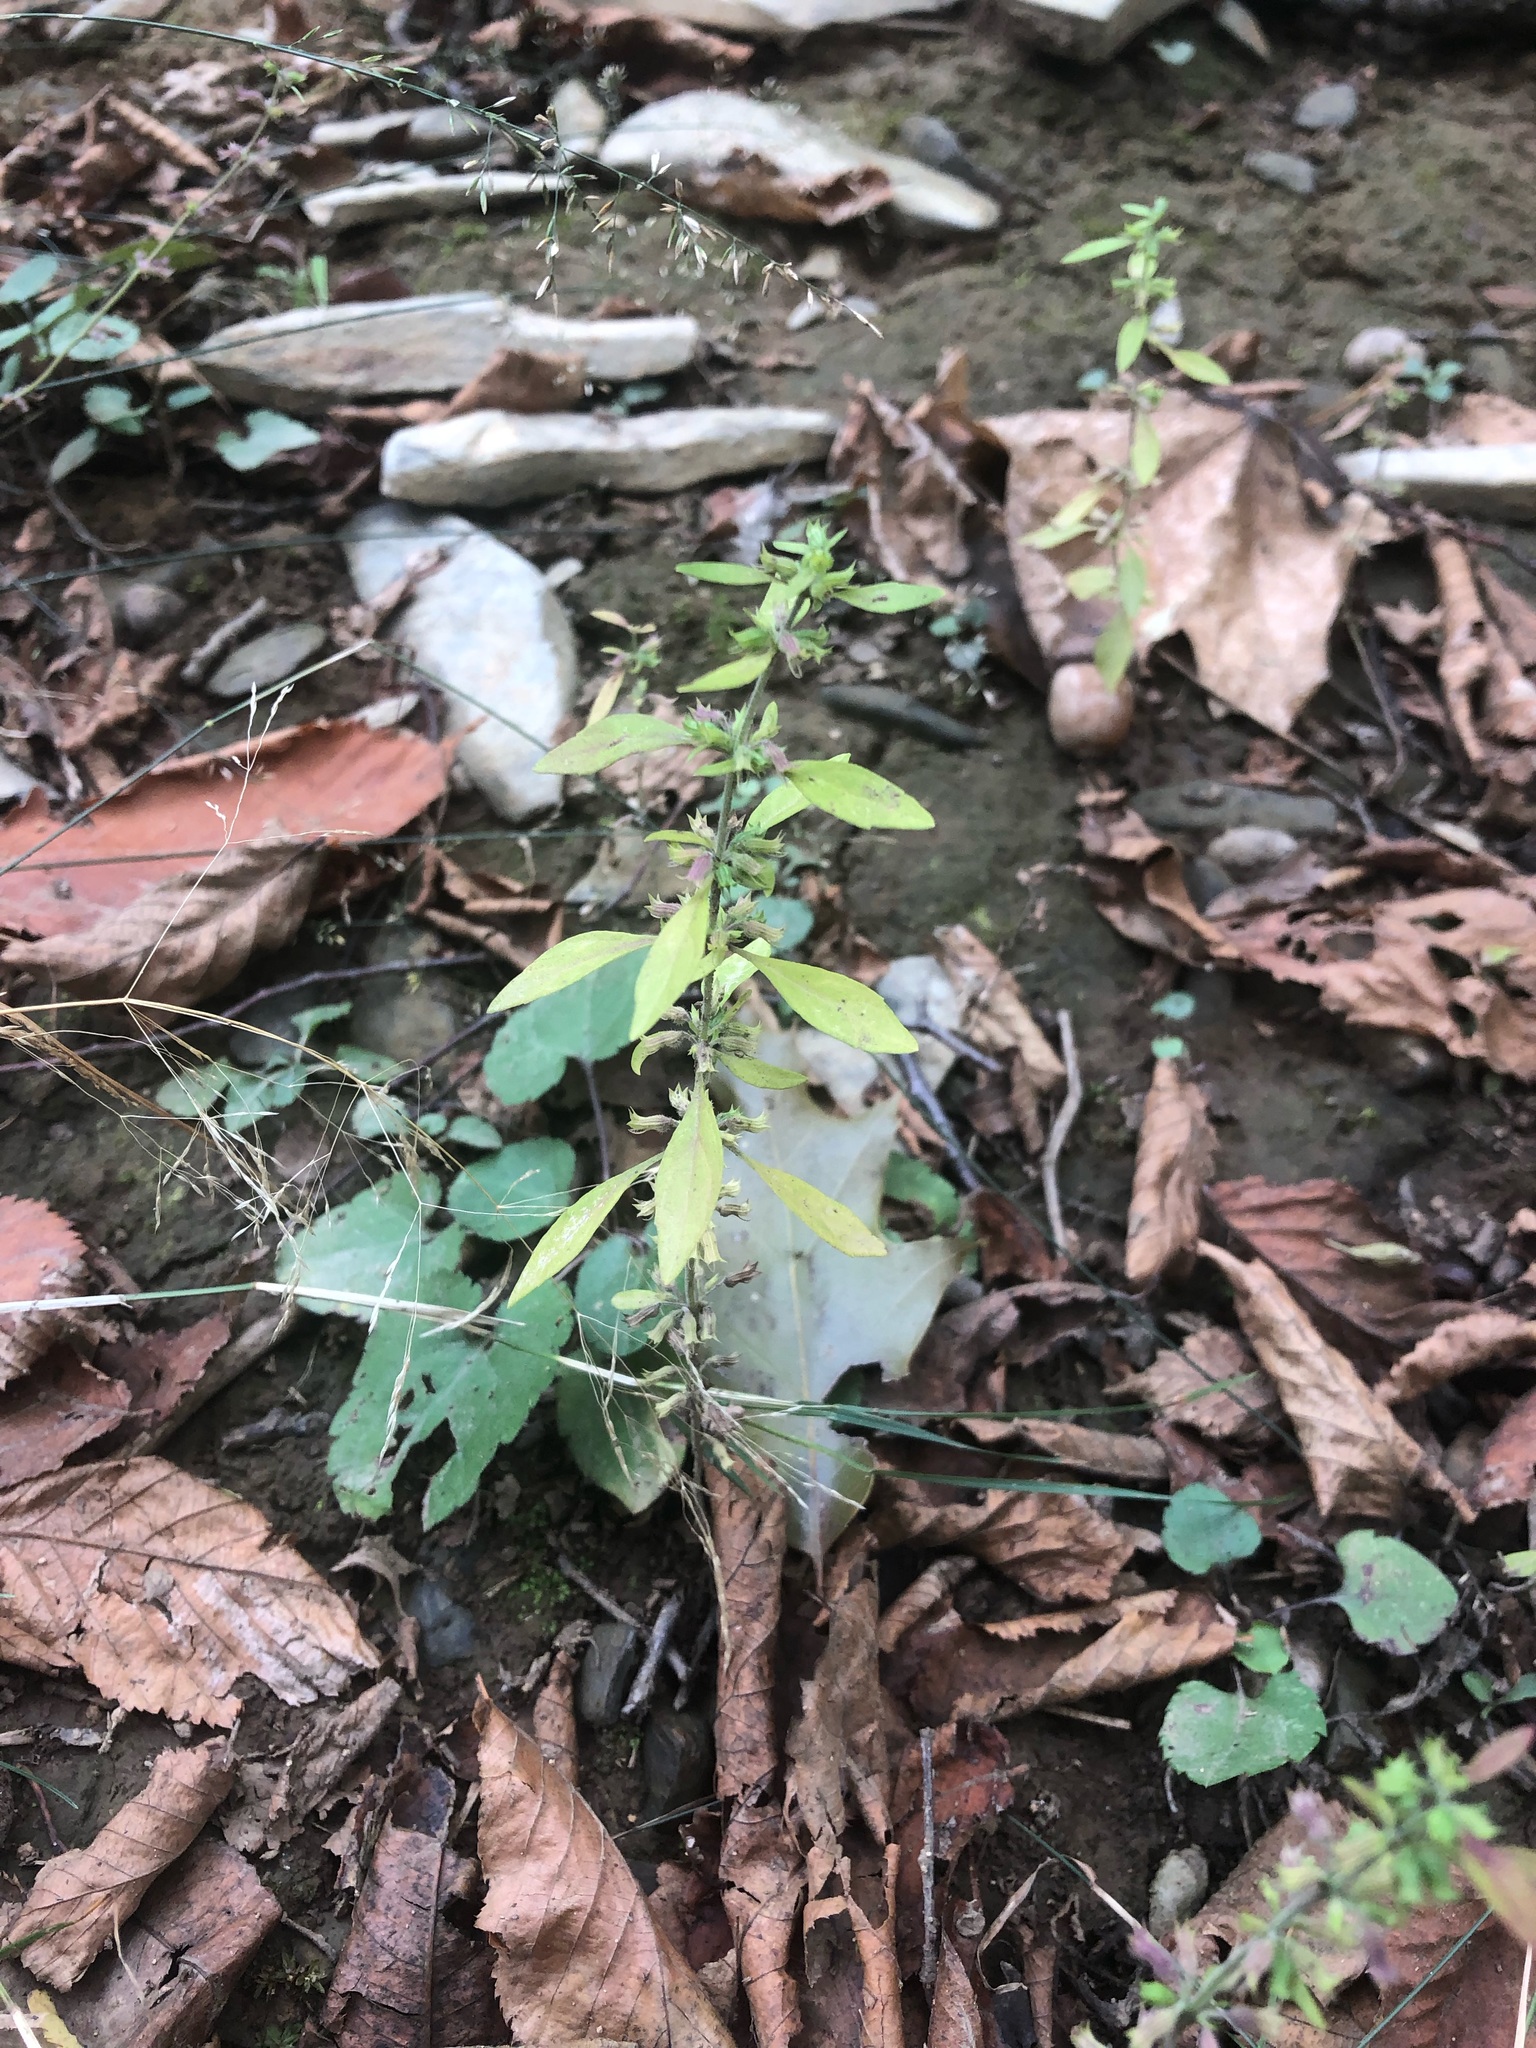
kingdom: Plantae
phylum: Tracheophyta
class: Magnoliopsida
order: Lamiales
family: Lamiaceae
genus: Hedeoma
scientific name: Hedeoma pulegioides
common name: American false pennyroyal
